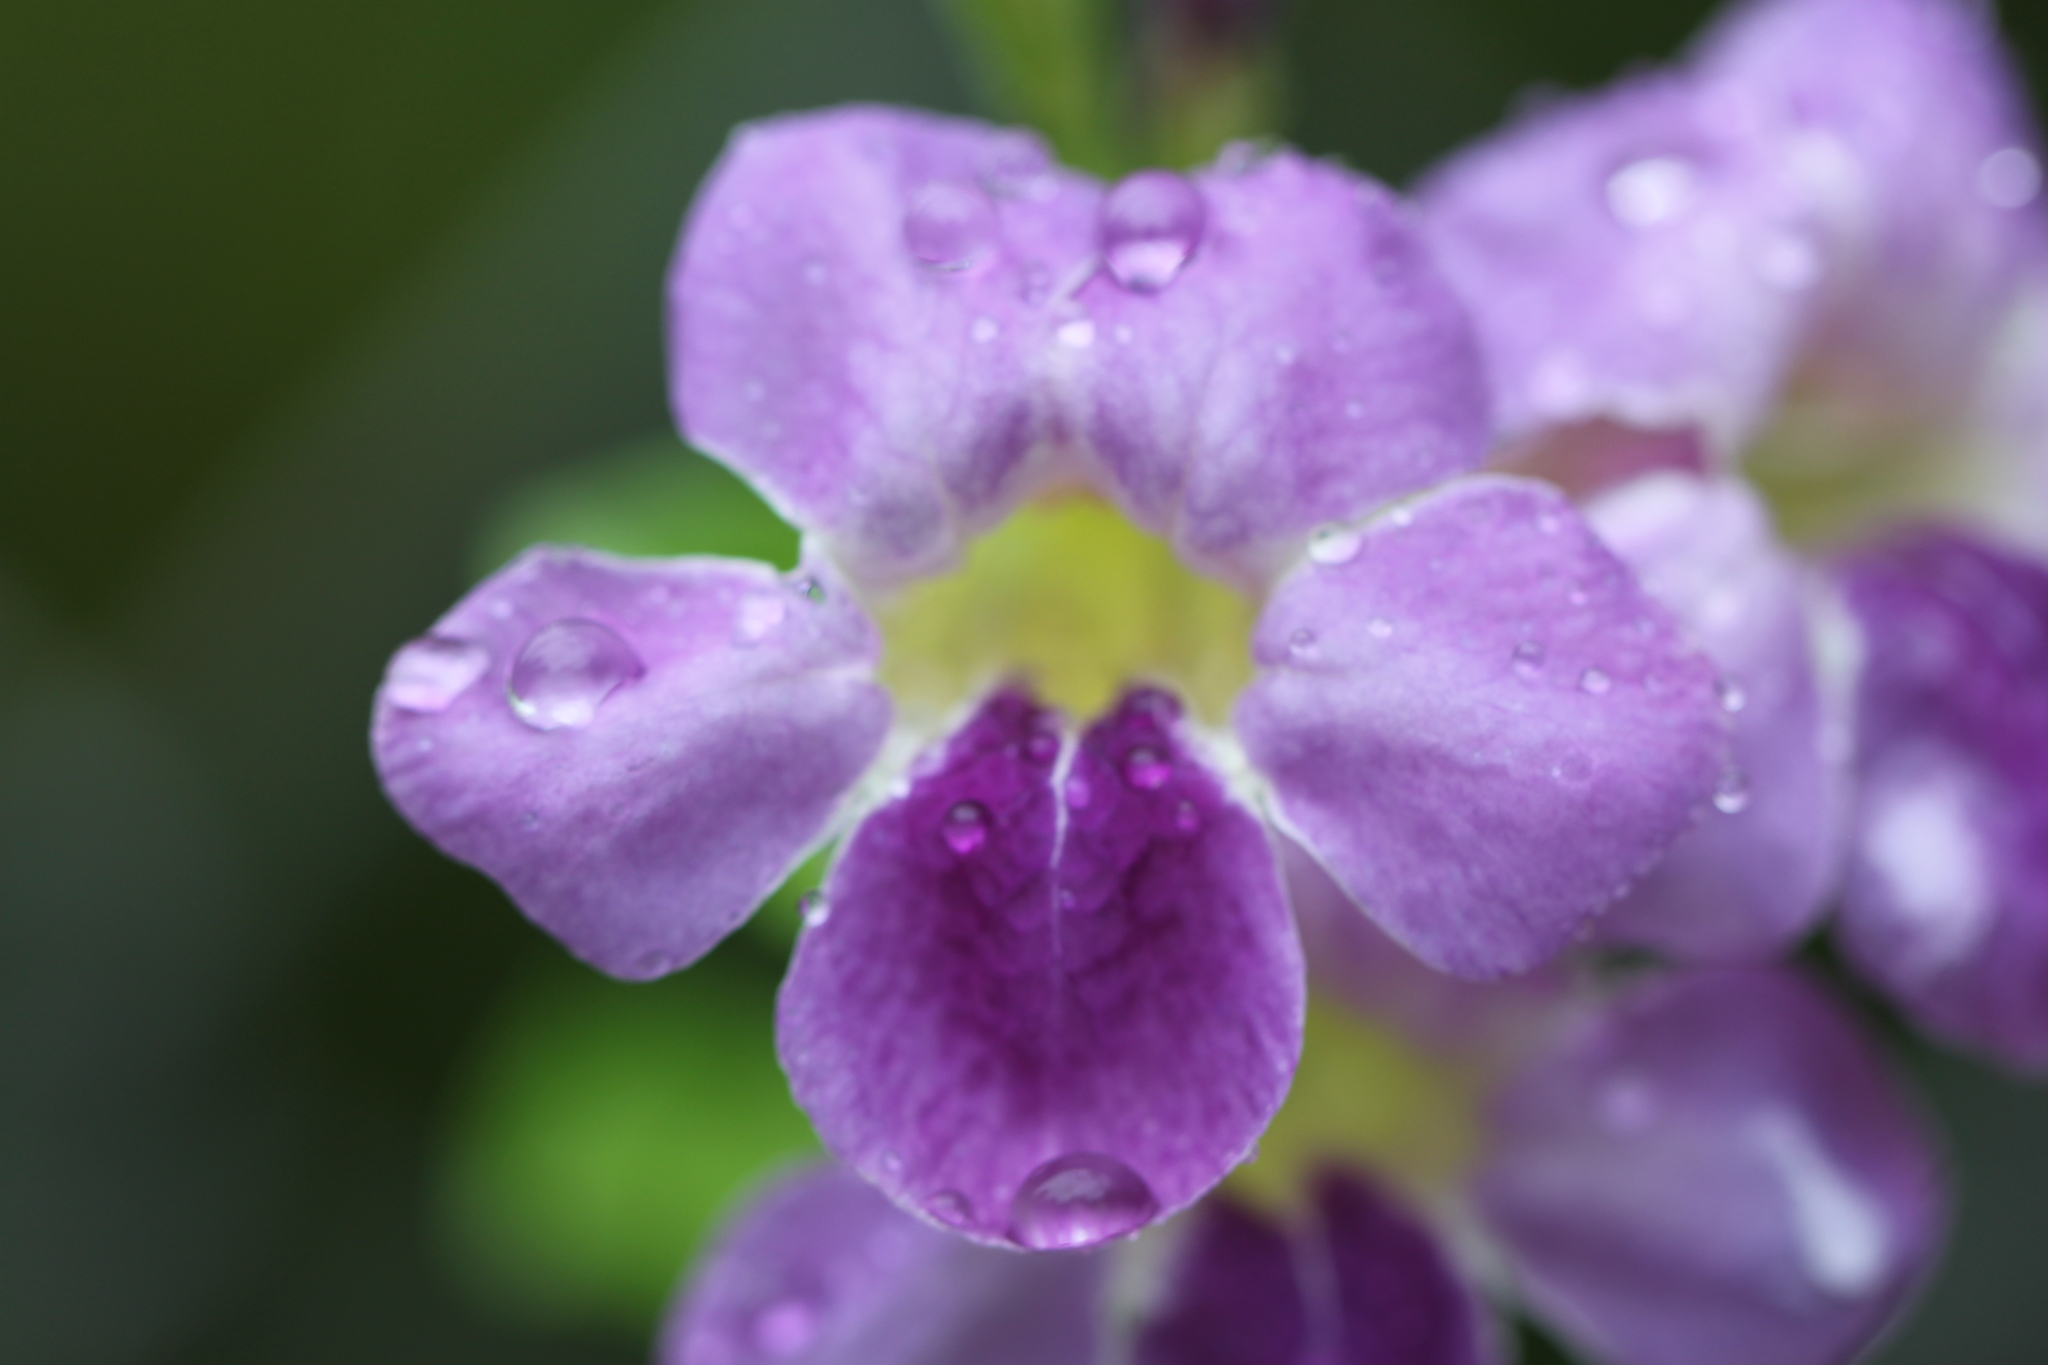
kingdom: Plantae
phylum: Tracheophyta
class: Magnoliopsida
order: Lamiales
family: Acanthaceae
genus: Asystasia
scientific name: Asystasia gangetica
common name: Chinese violet
